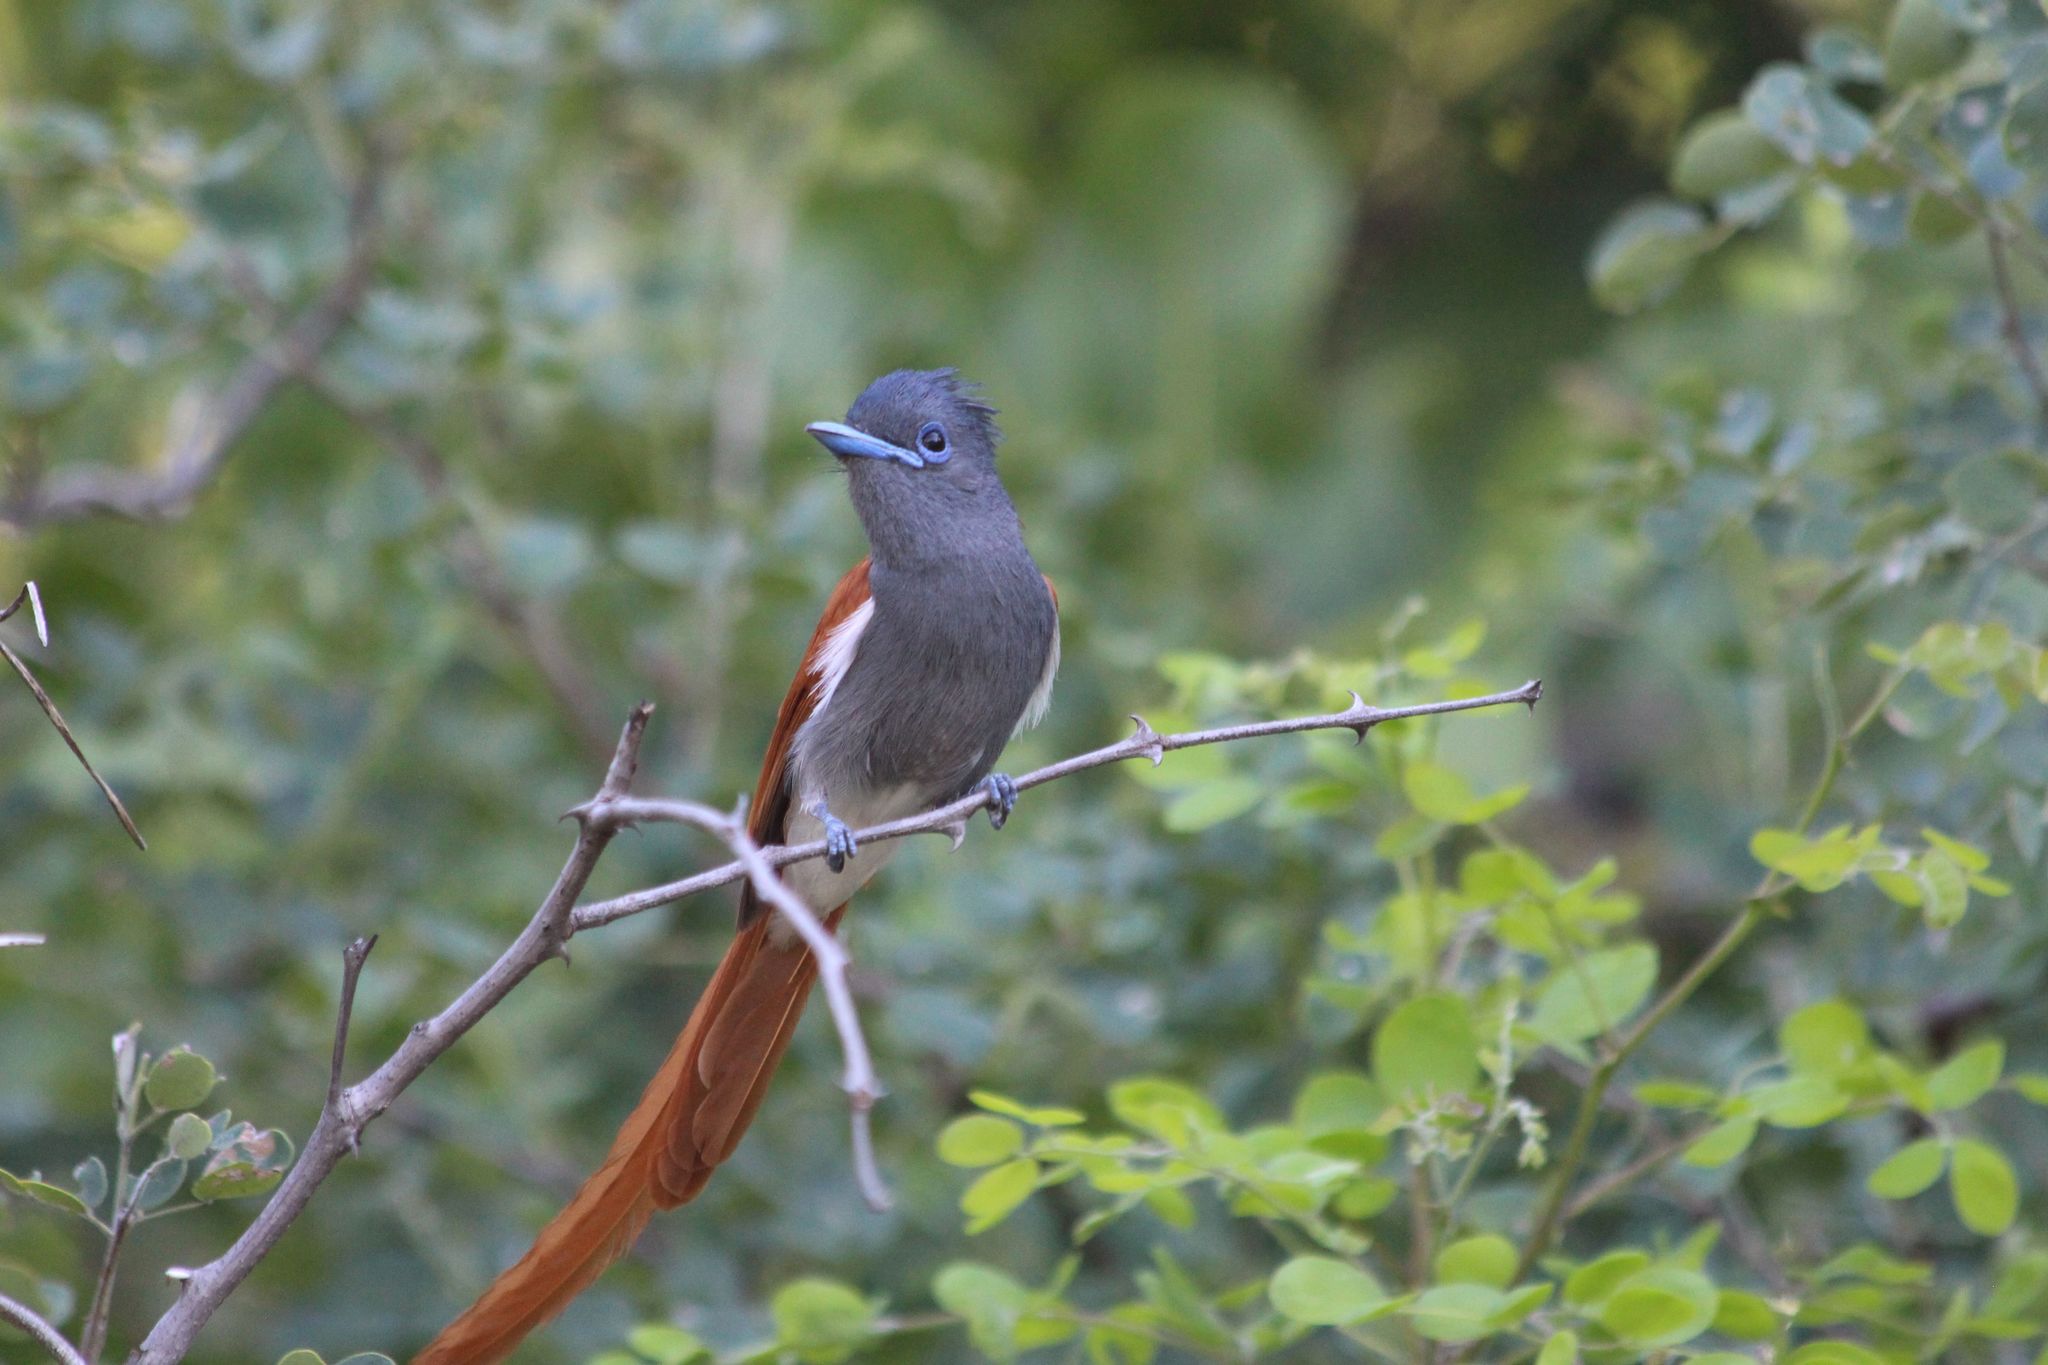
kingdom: Animalia
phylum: Chordata
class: Aves
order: Passeriformes
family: Monarchidae
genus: Terpsiphone
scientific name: Terpsiphone viridis
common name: African paradise flycatcher
